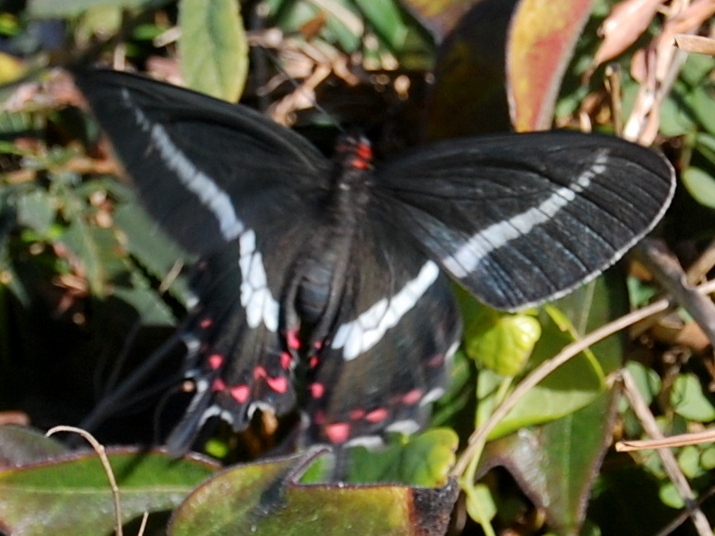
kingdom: Animalia
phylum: Arthropoda
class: Insecta
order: Lepidoptera
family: Papilionidae
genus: Parides
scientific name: Parides bunichus
